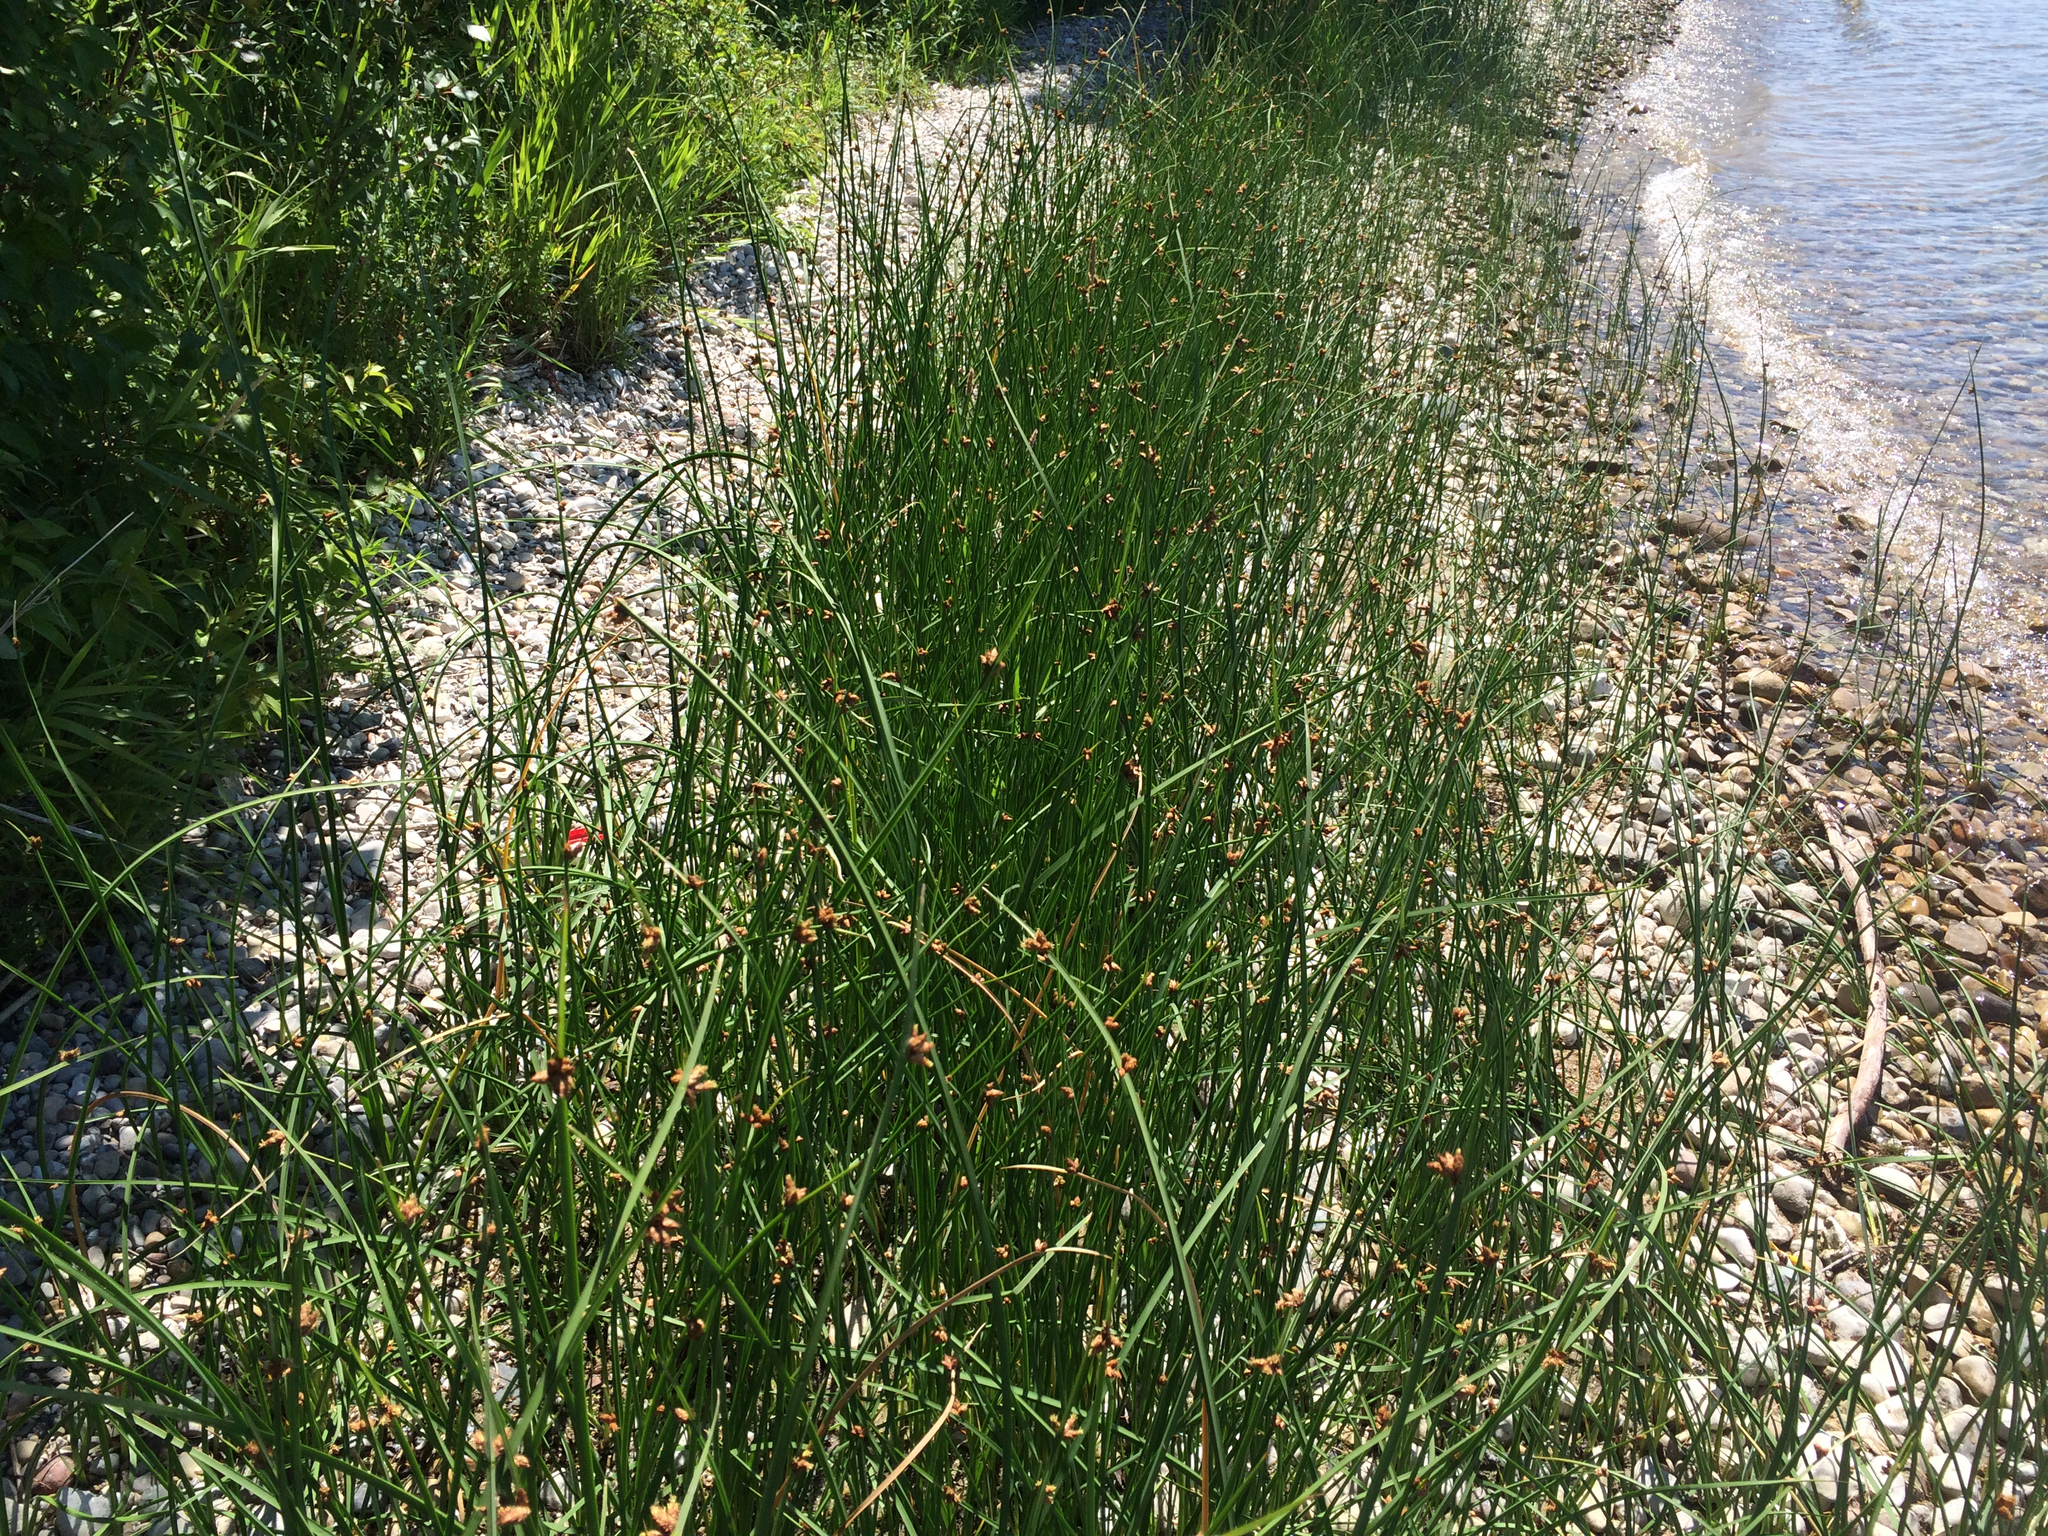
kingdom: Plantae
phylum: Tracheophyta
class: Liliopsida
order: Poales
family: Cyperaceae
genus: Schoenoplectus
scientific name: Schoenoplectus pungens
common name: Sharp club-rush
